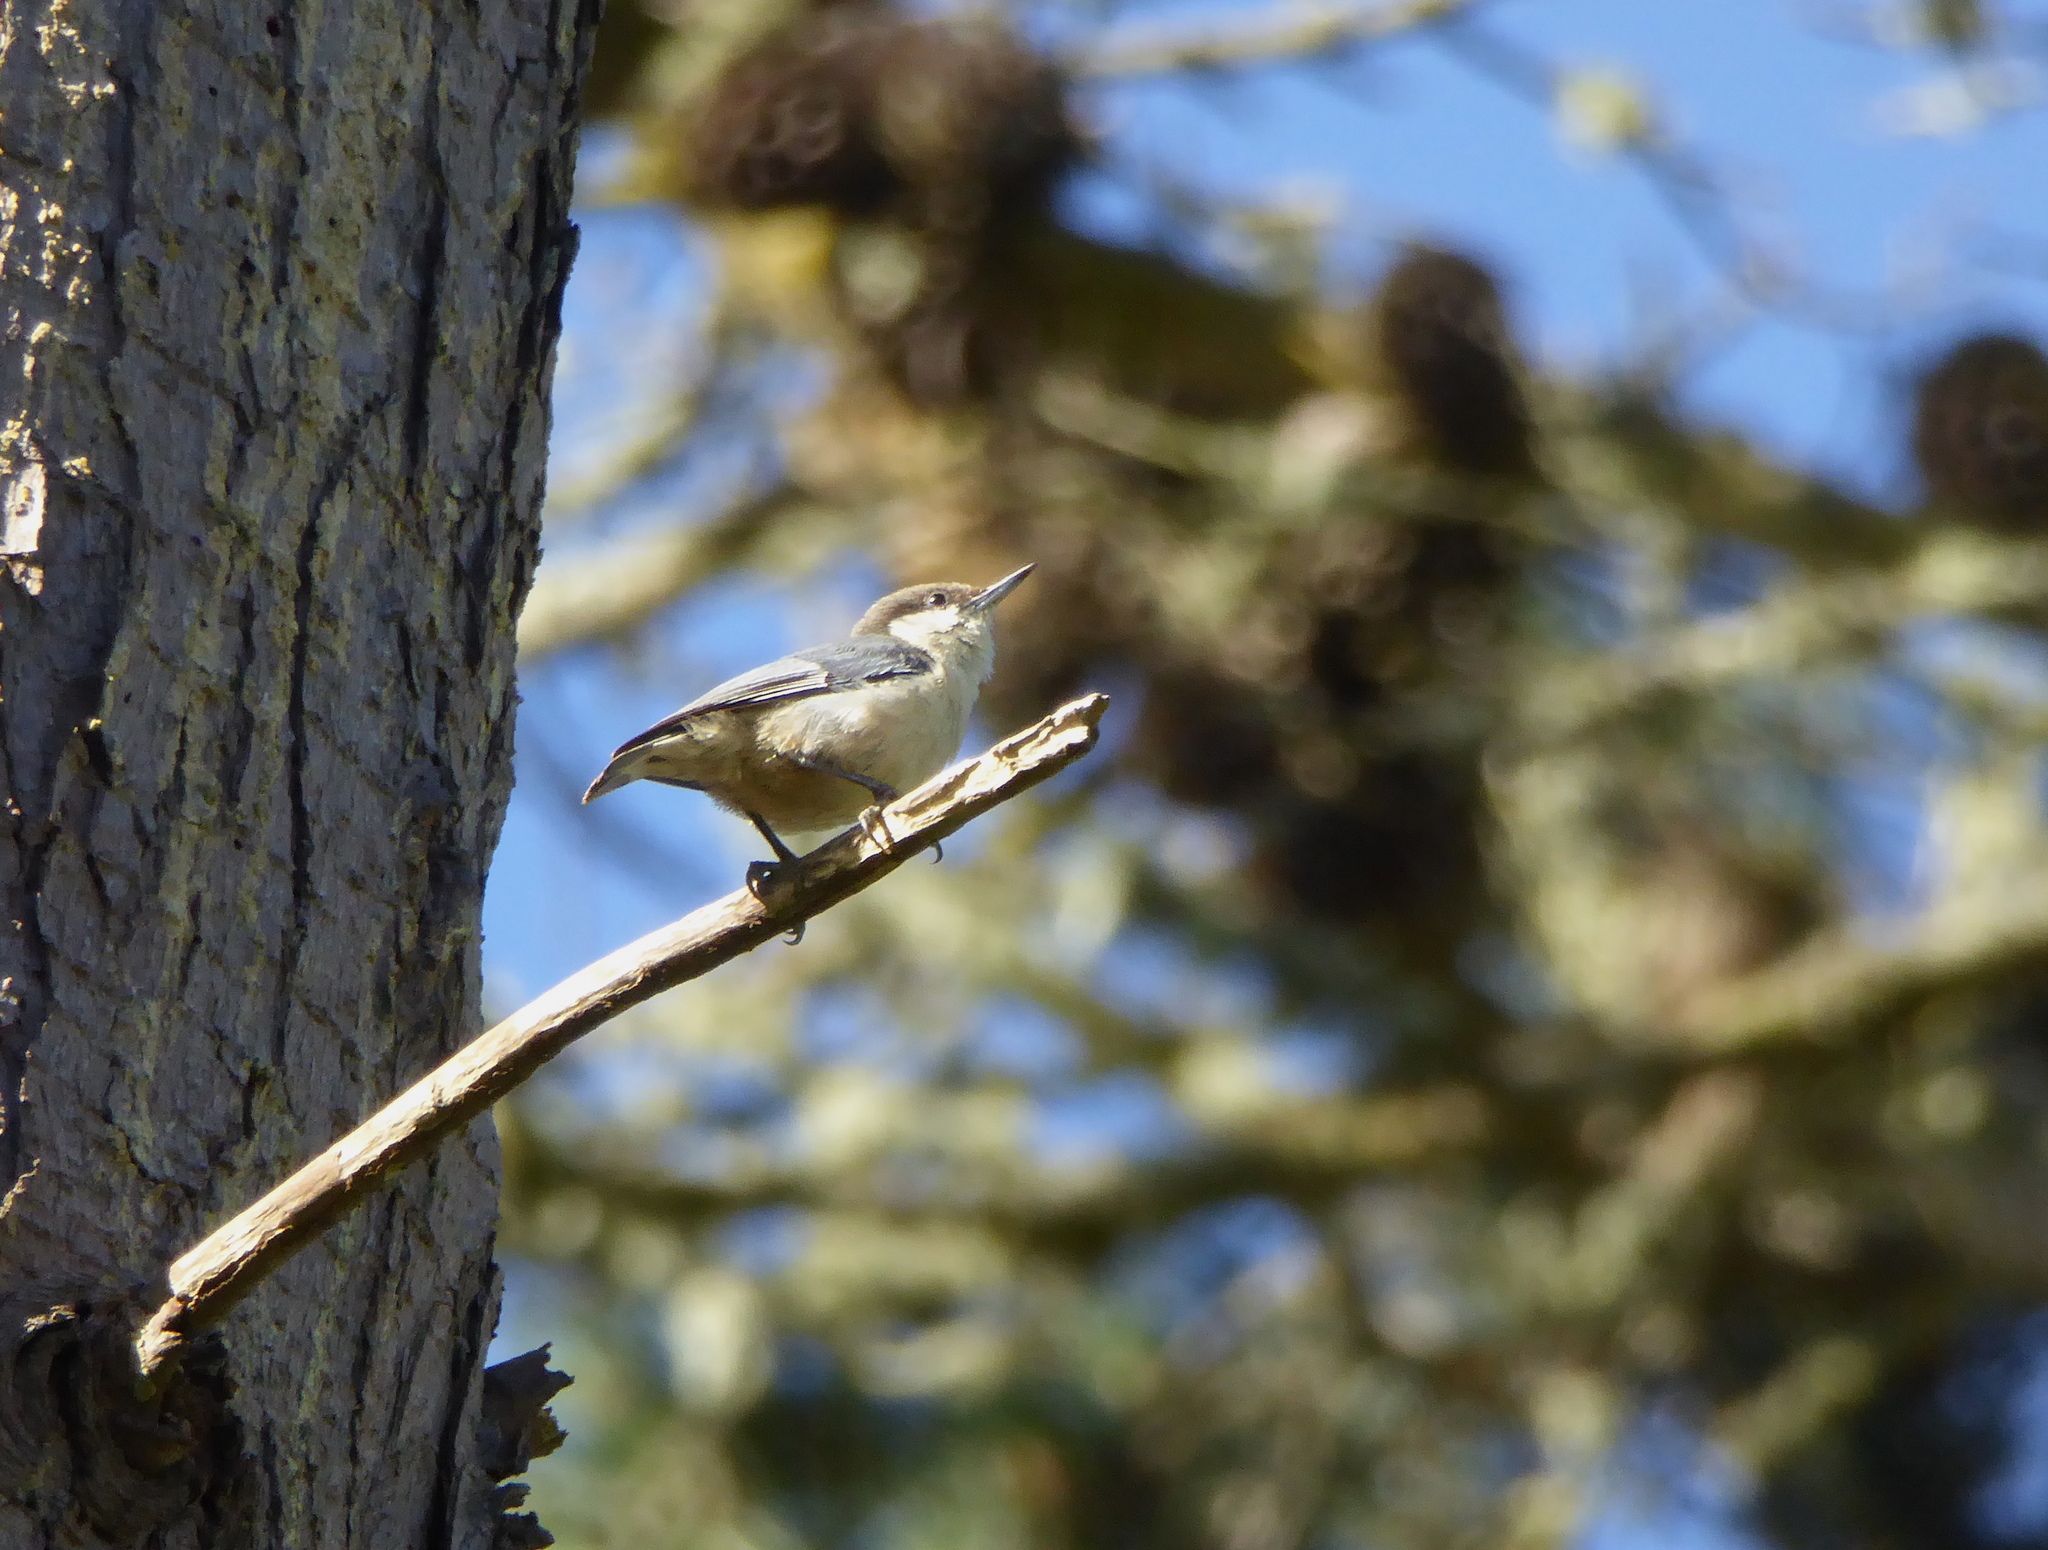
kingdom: Animalia
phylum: Chordata
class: Aves
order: Passeriformes
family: Sittidae
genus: Sitta
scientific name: Sitta pygmaea
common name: Pygmy nuthatch
